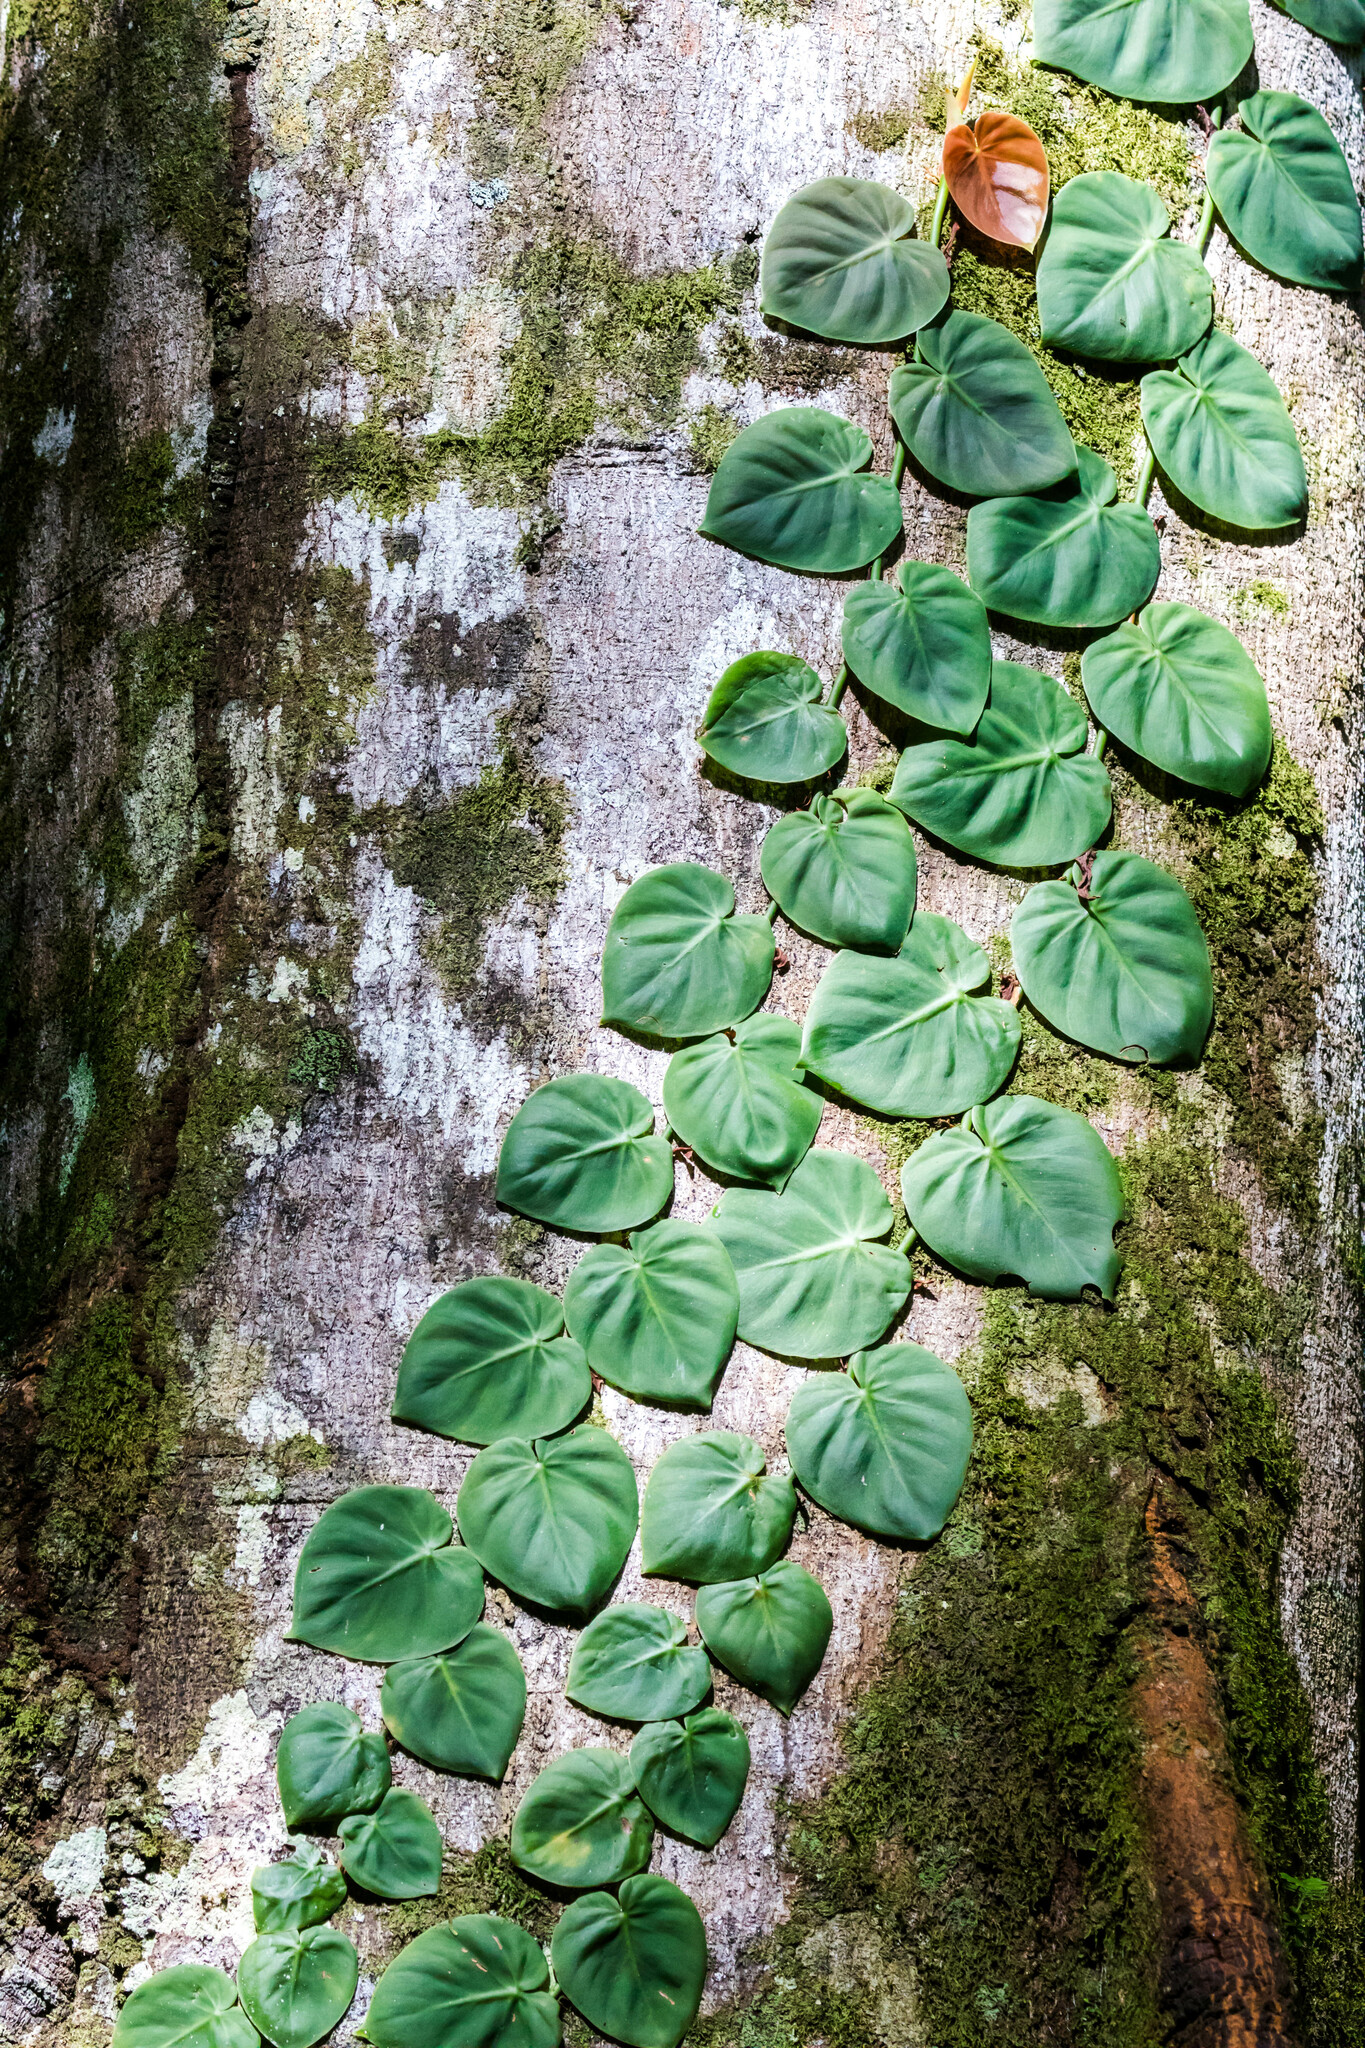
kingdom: Plantae
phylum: Tracheophyta
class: Liliopsida
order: Alismatales
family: Araceae
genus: Philodendron
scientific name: Philodendron hederaceum
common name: Vilevine
